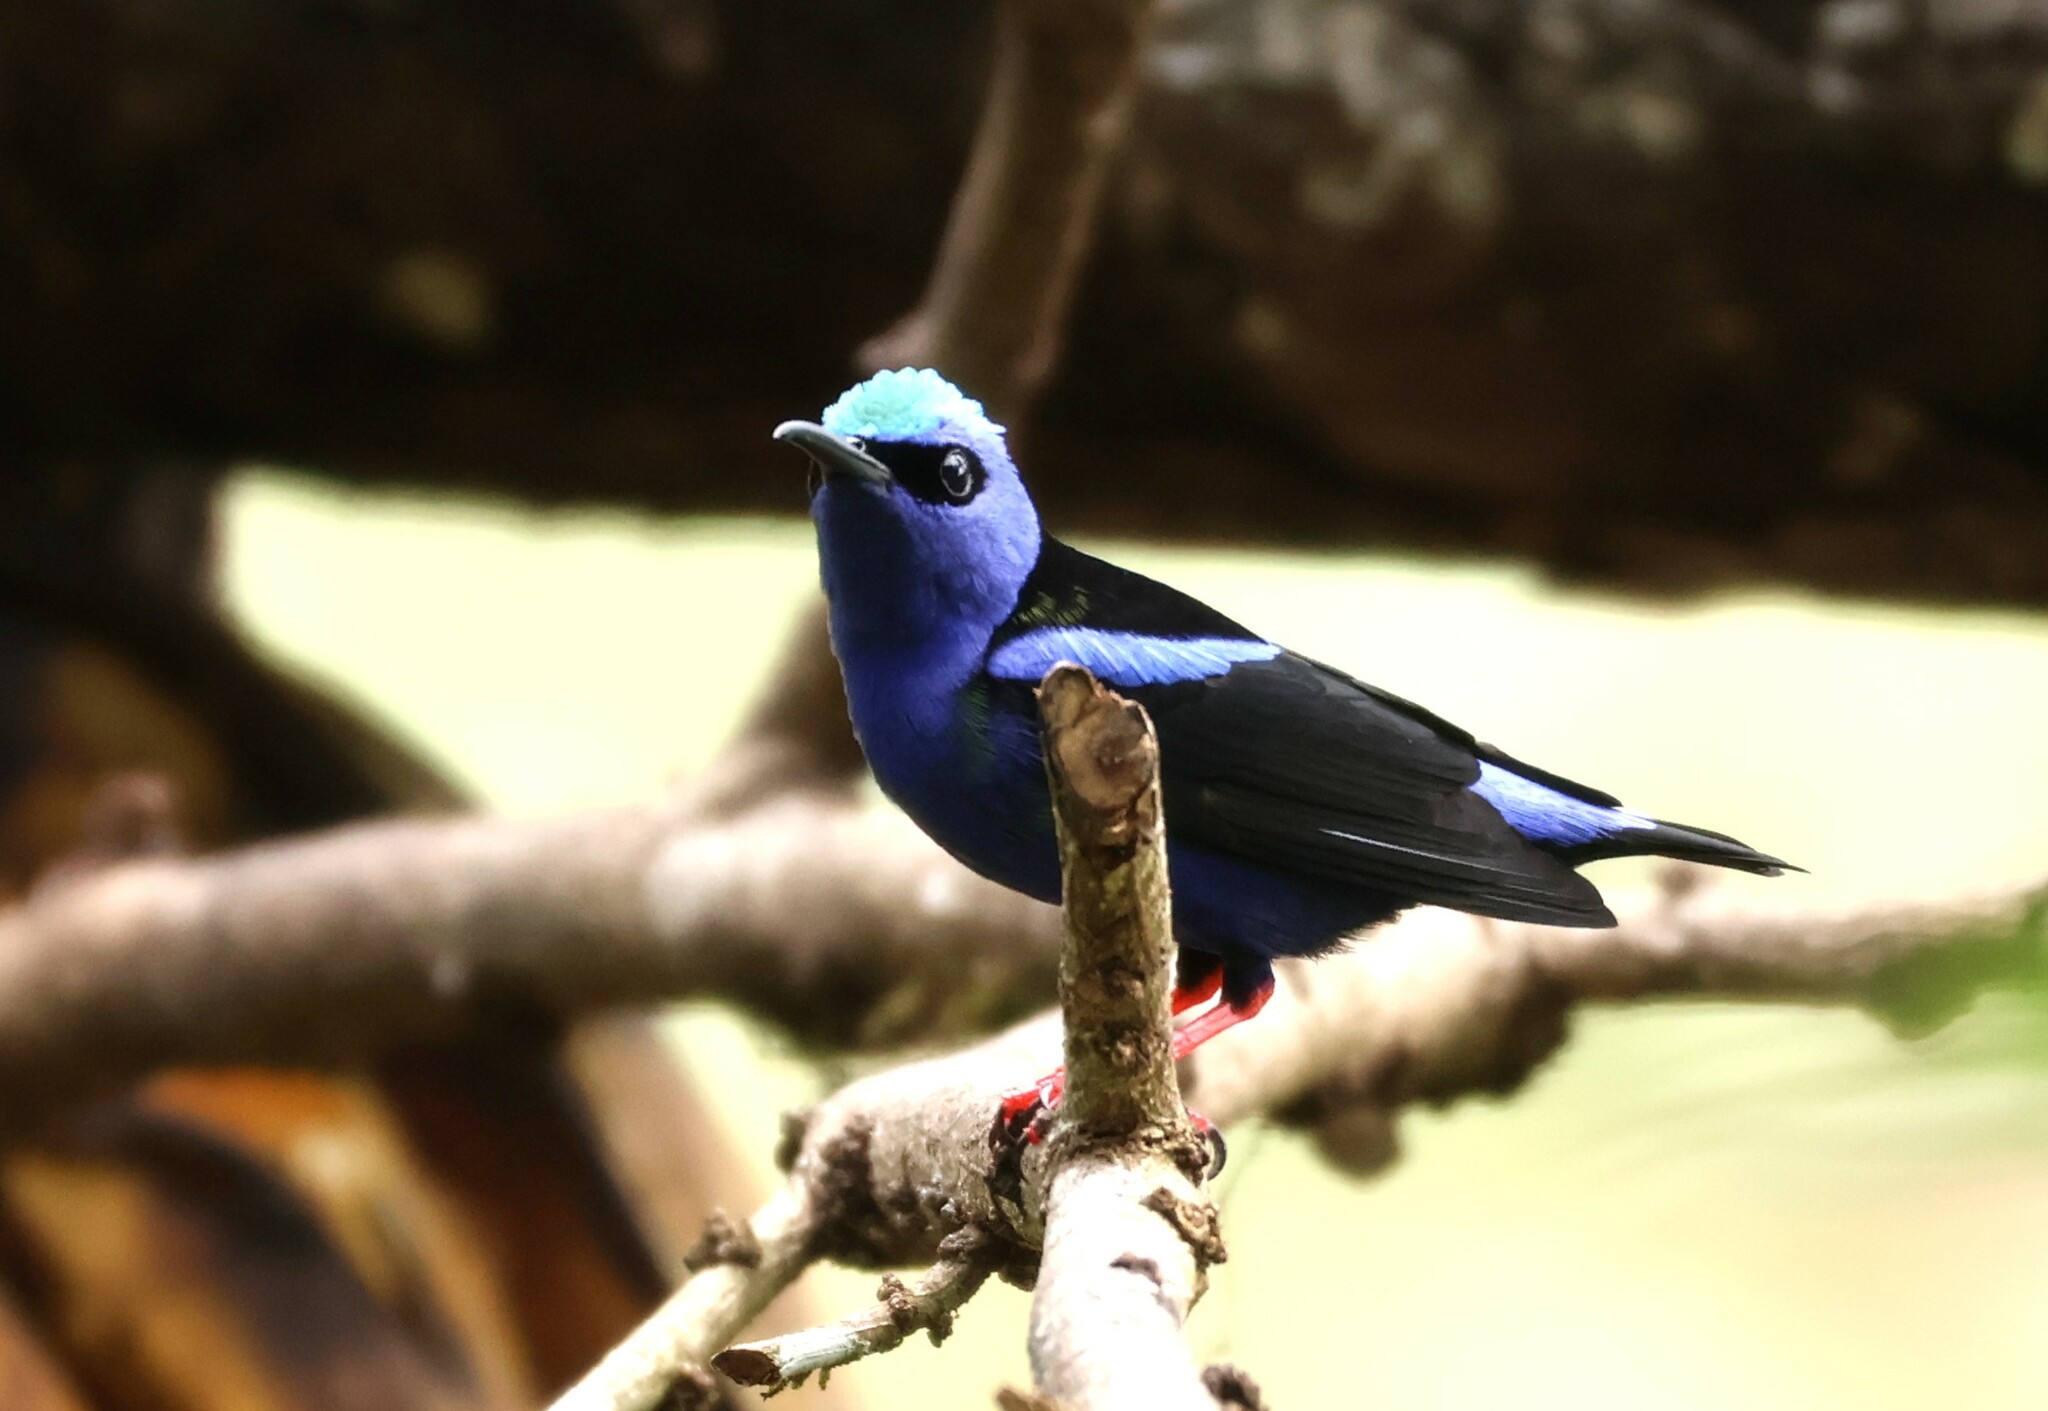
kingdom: Animalia
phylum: Chordata
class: Aves
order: Passeriformes
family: Thraupidae
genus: Cyanerpes
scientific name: Cyanerpes cyaneus
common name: Red-legged honeycreeper
